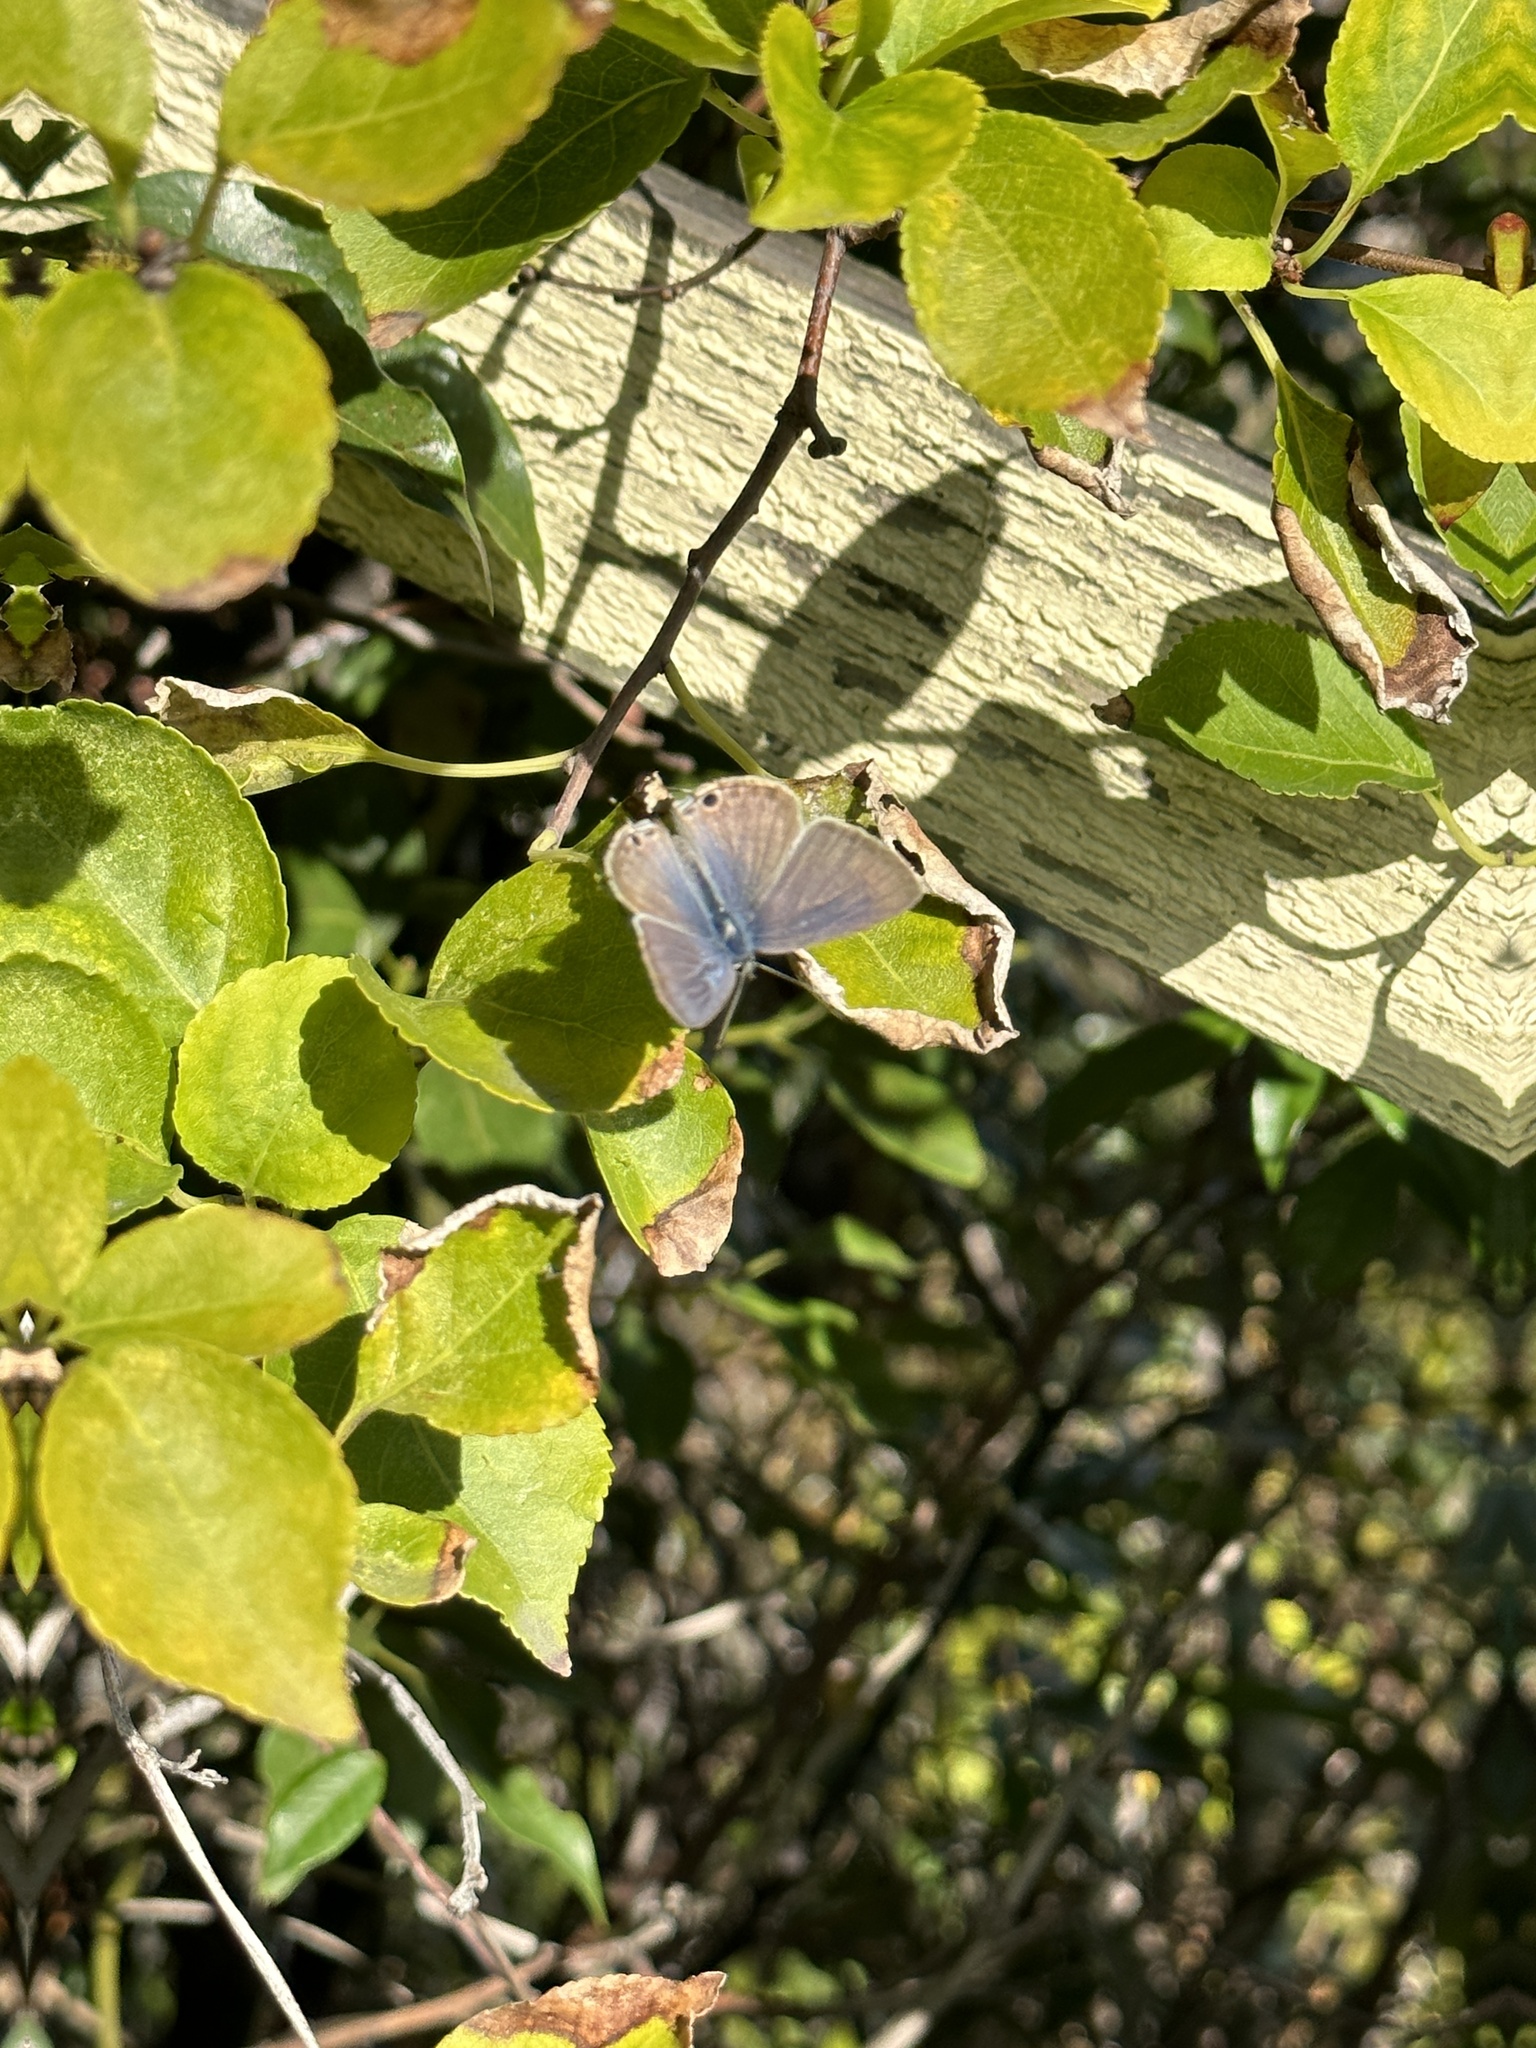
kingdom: Animalia
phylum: Arthropoda
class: Insecta
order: Lepidoptera
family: Lycaenidae
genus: Lampides
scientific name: Lampides boeticus
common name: Long-tailed blue
